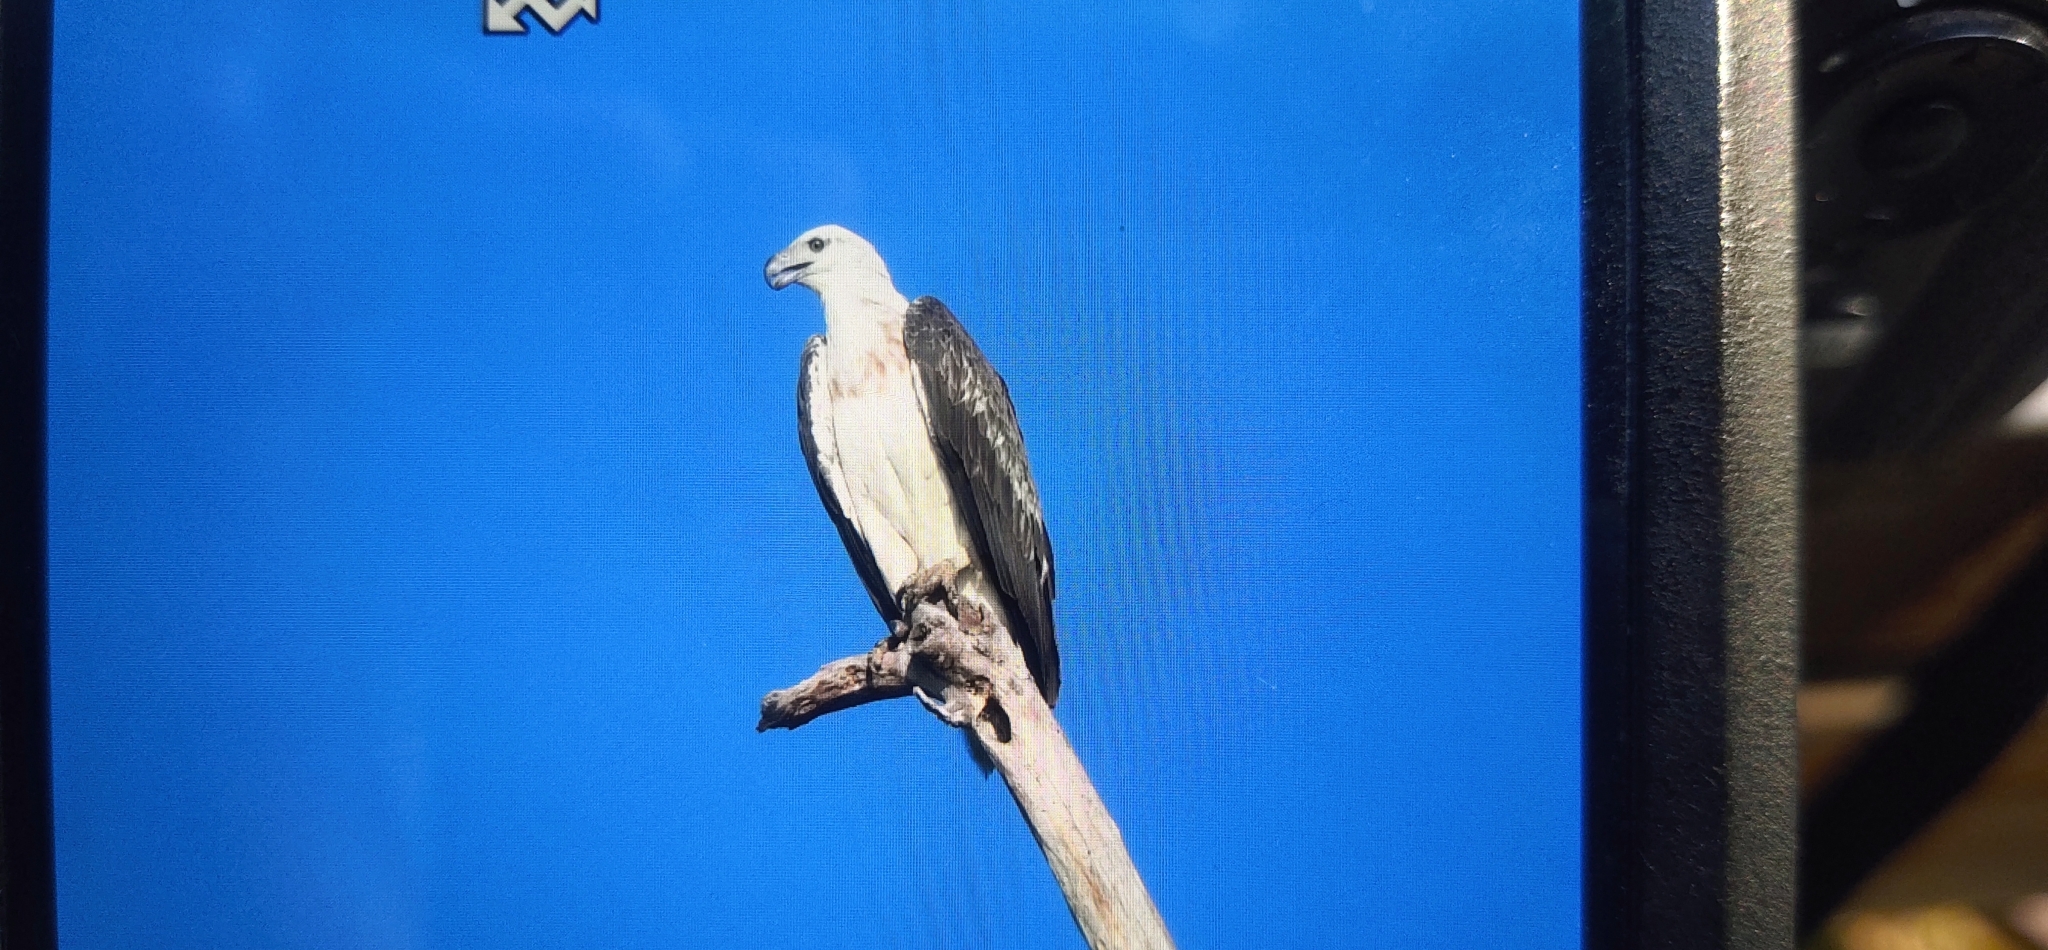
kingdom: Animalia
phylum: Chordata
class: Aves
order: Accipitriformes
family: Accipitridae
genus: Haliaeetus
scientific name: Haliaeetus leucogaster
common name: White-bellied sea eagle
